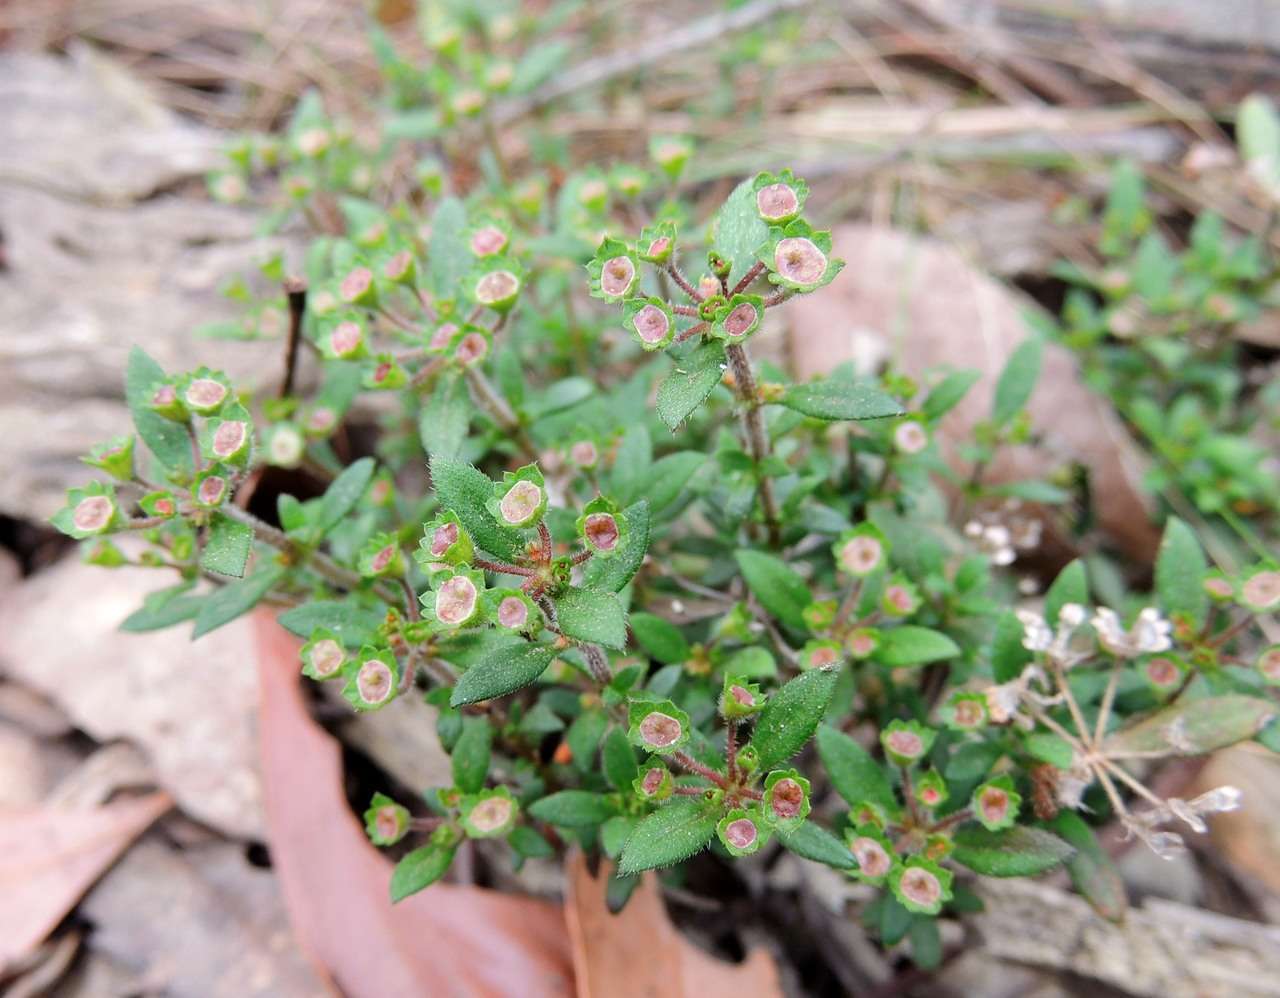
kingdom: Plantae
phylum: Tracheophyta
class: Magnoliopsida
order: Gentianales
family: Rubiaceae
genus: Pomax
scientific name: Pomax umbellata
